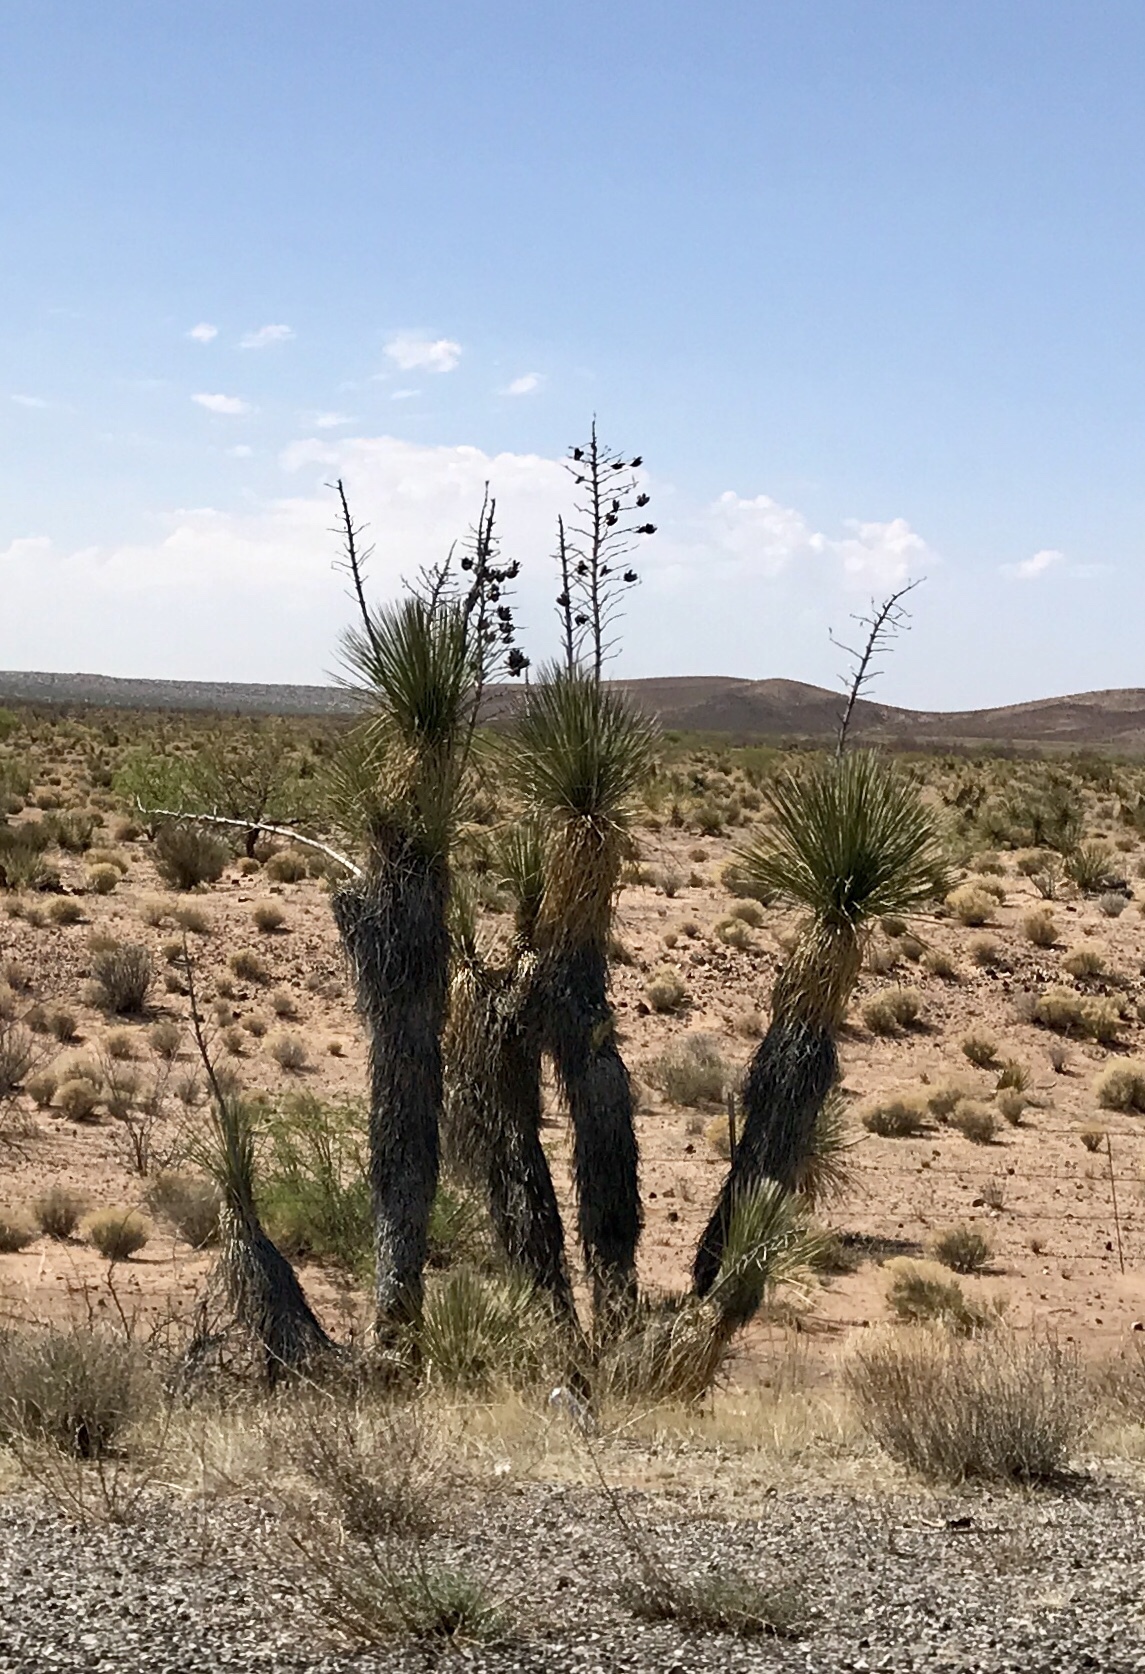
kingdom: Plantae
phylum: Tracheophyta
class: Liliopsida
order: Asparagales
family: Asparagaceae
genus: Yucca
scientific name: Yucca elata
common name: Palmella
